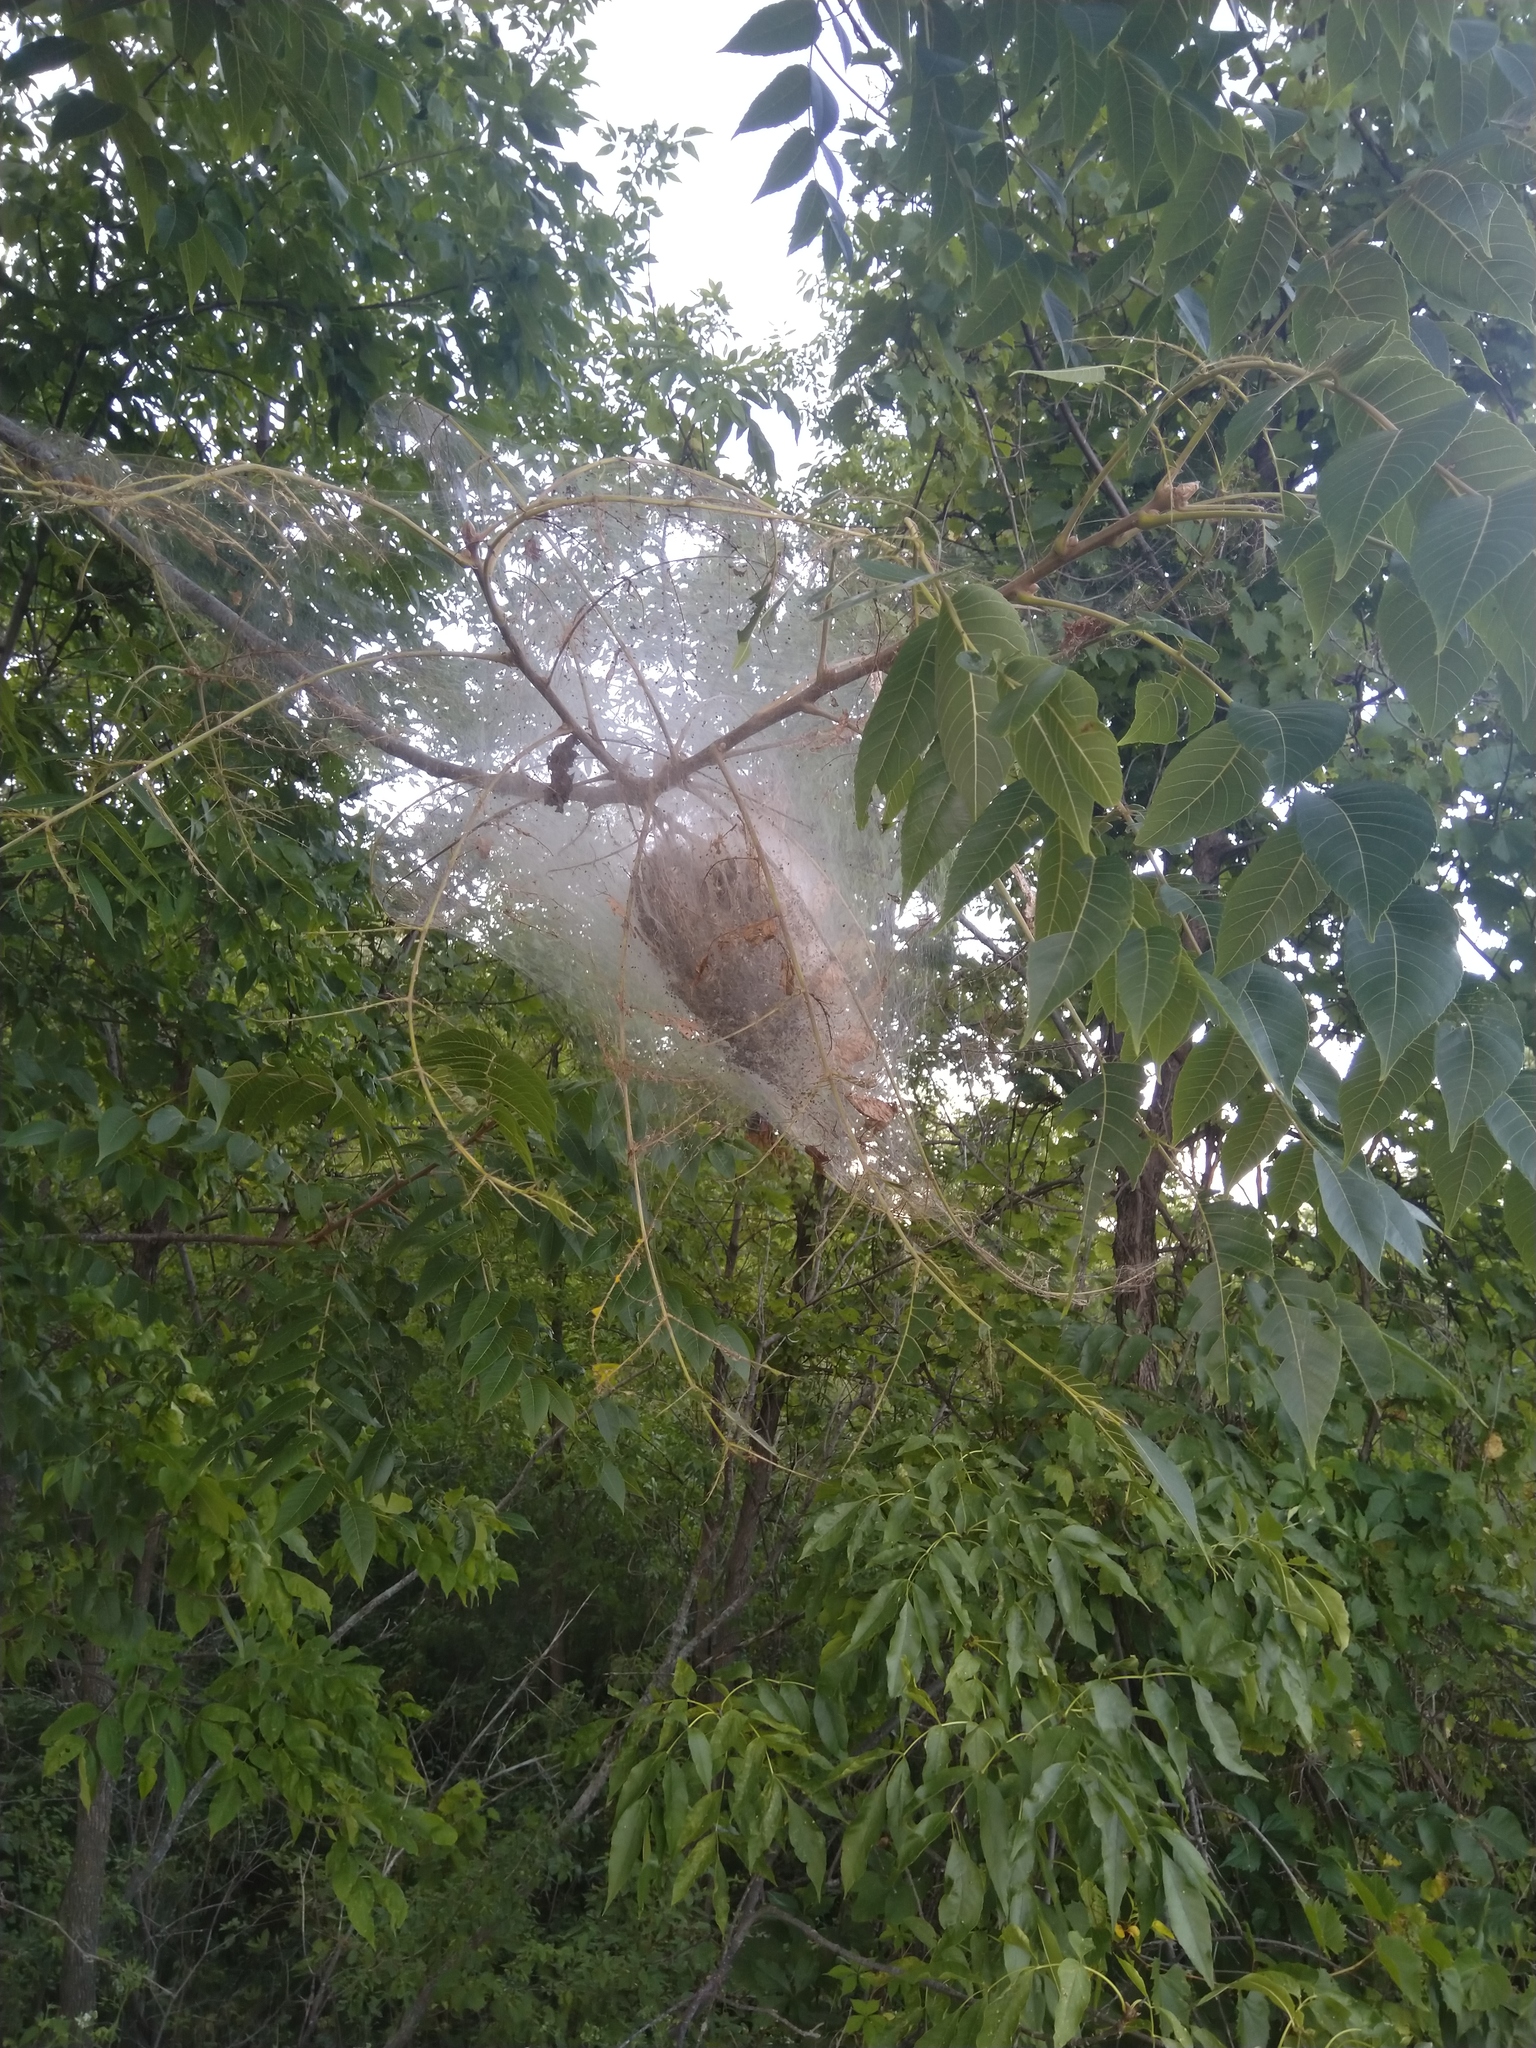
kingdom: Animalia
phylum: Arthropoda
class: Insecta
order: Lepidoptera
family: Erebidae
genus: Hyphantria
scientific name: Hyphantria cunea
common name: American white moth
